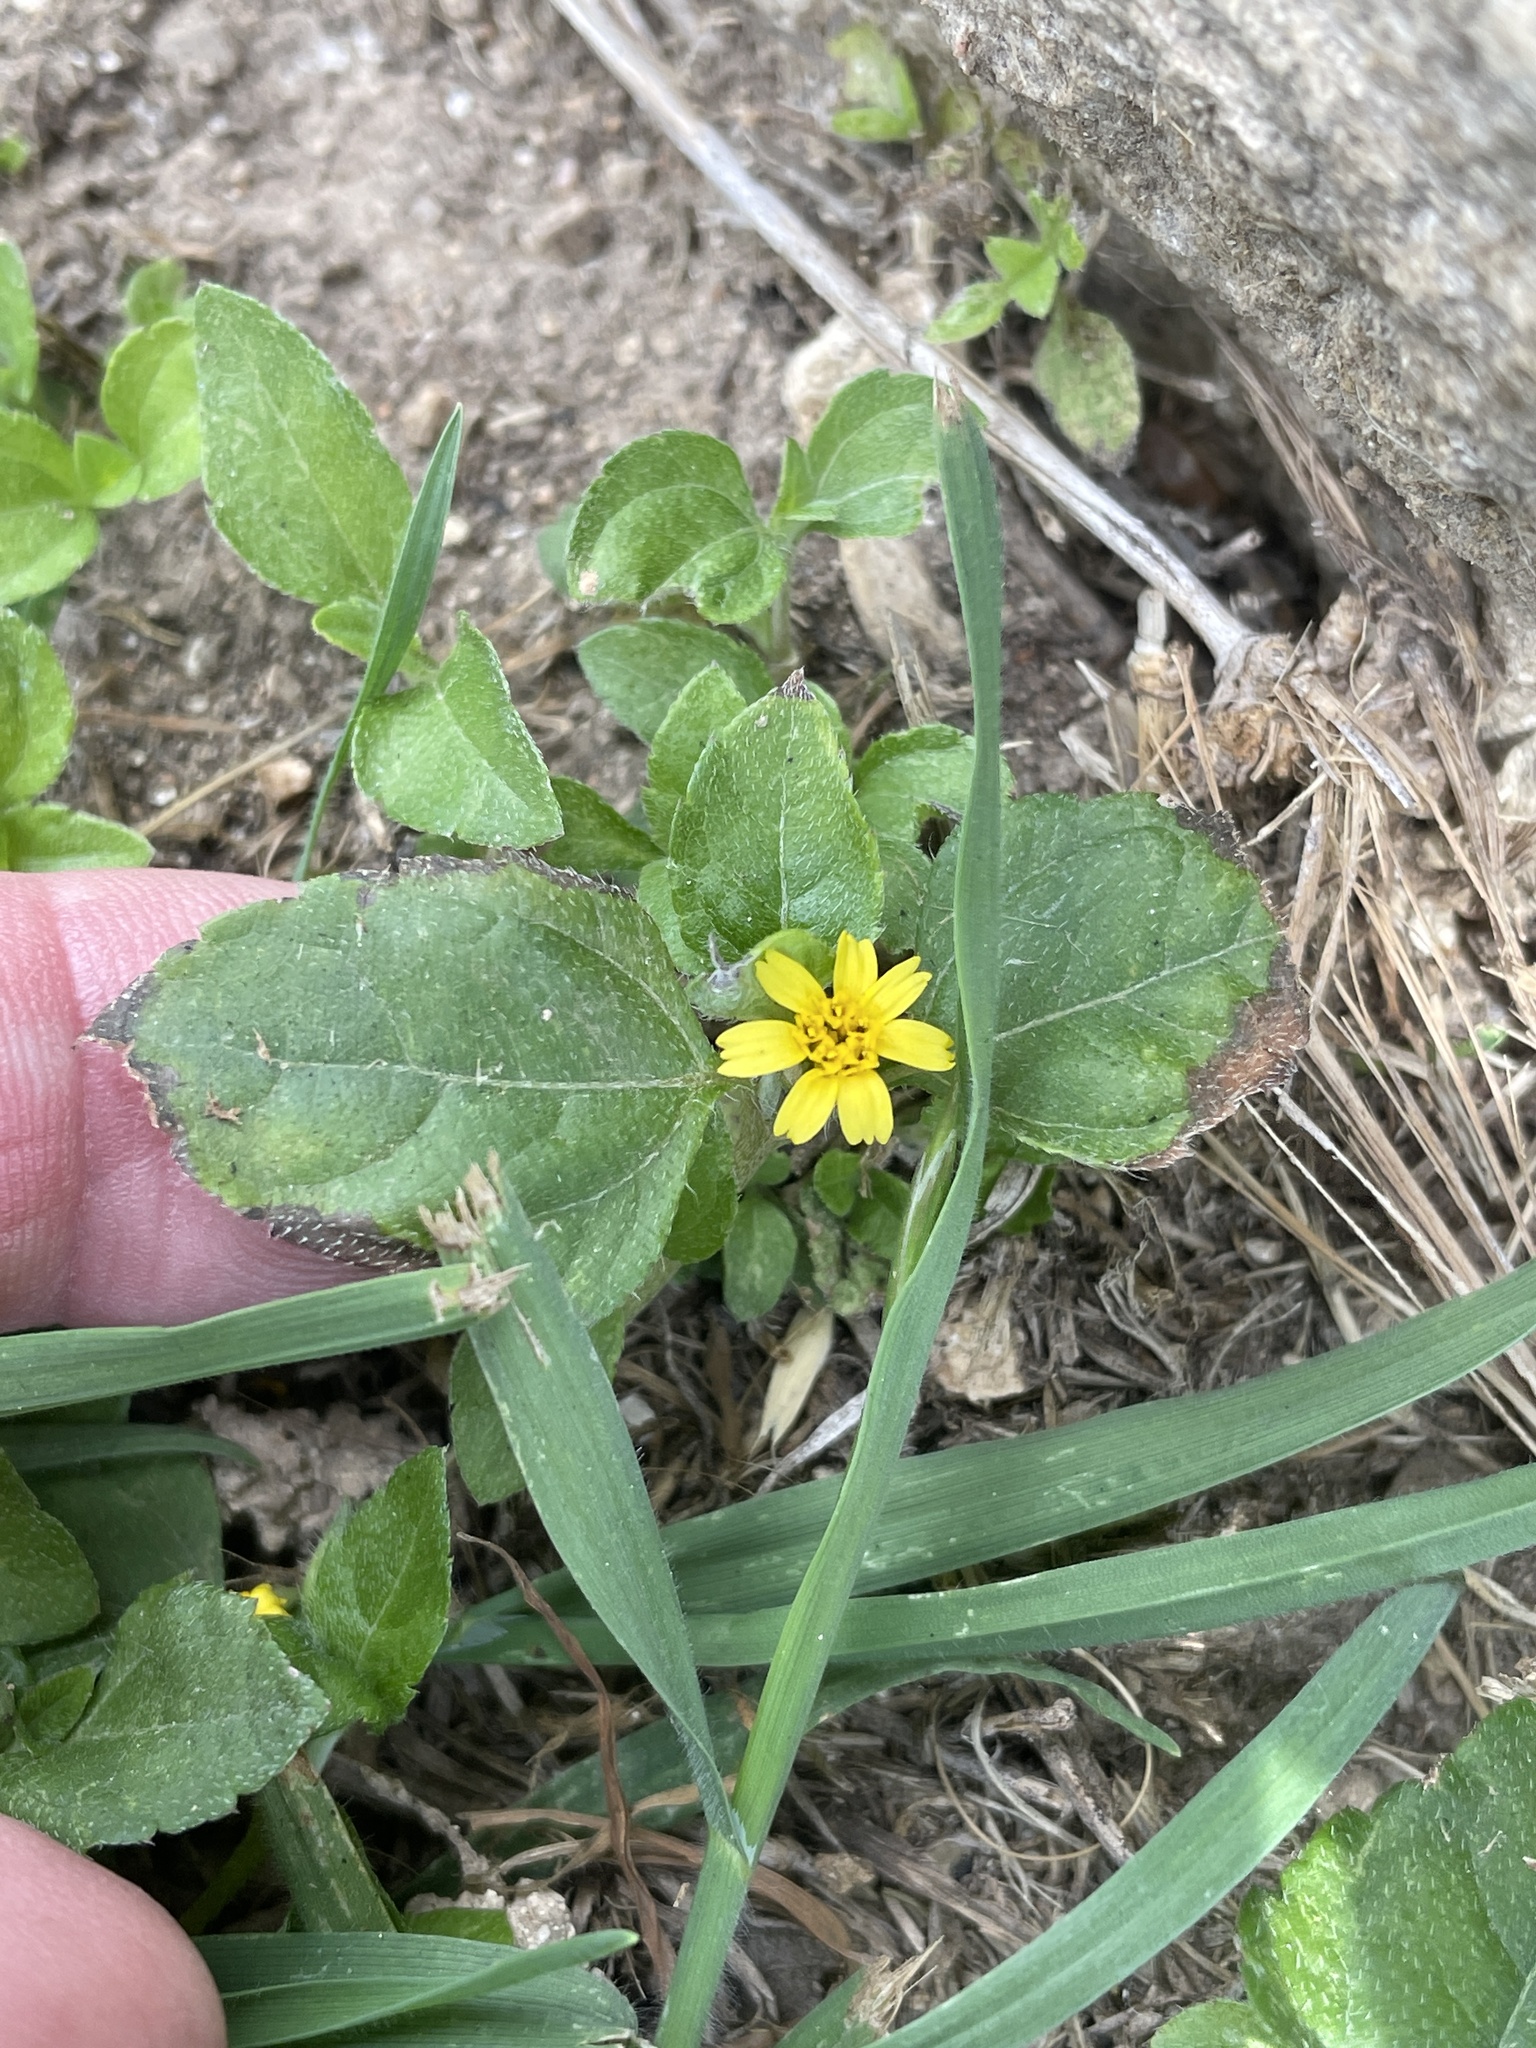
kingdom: Plantae
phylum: Tracheophyta
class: Magnoliopsida
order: Asterales
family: Asteraceae
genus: Calyptocarpus
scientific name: Calyptocarpus vialis
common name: Straggler daisy
